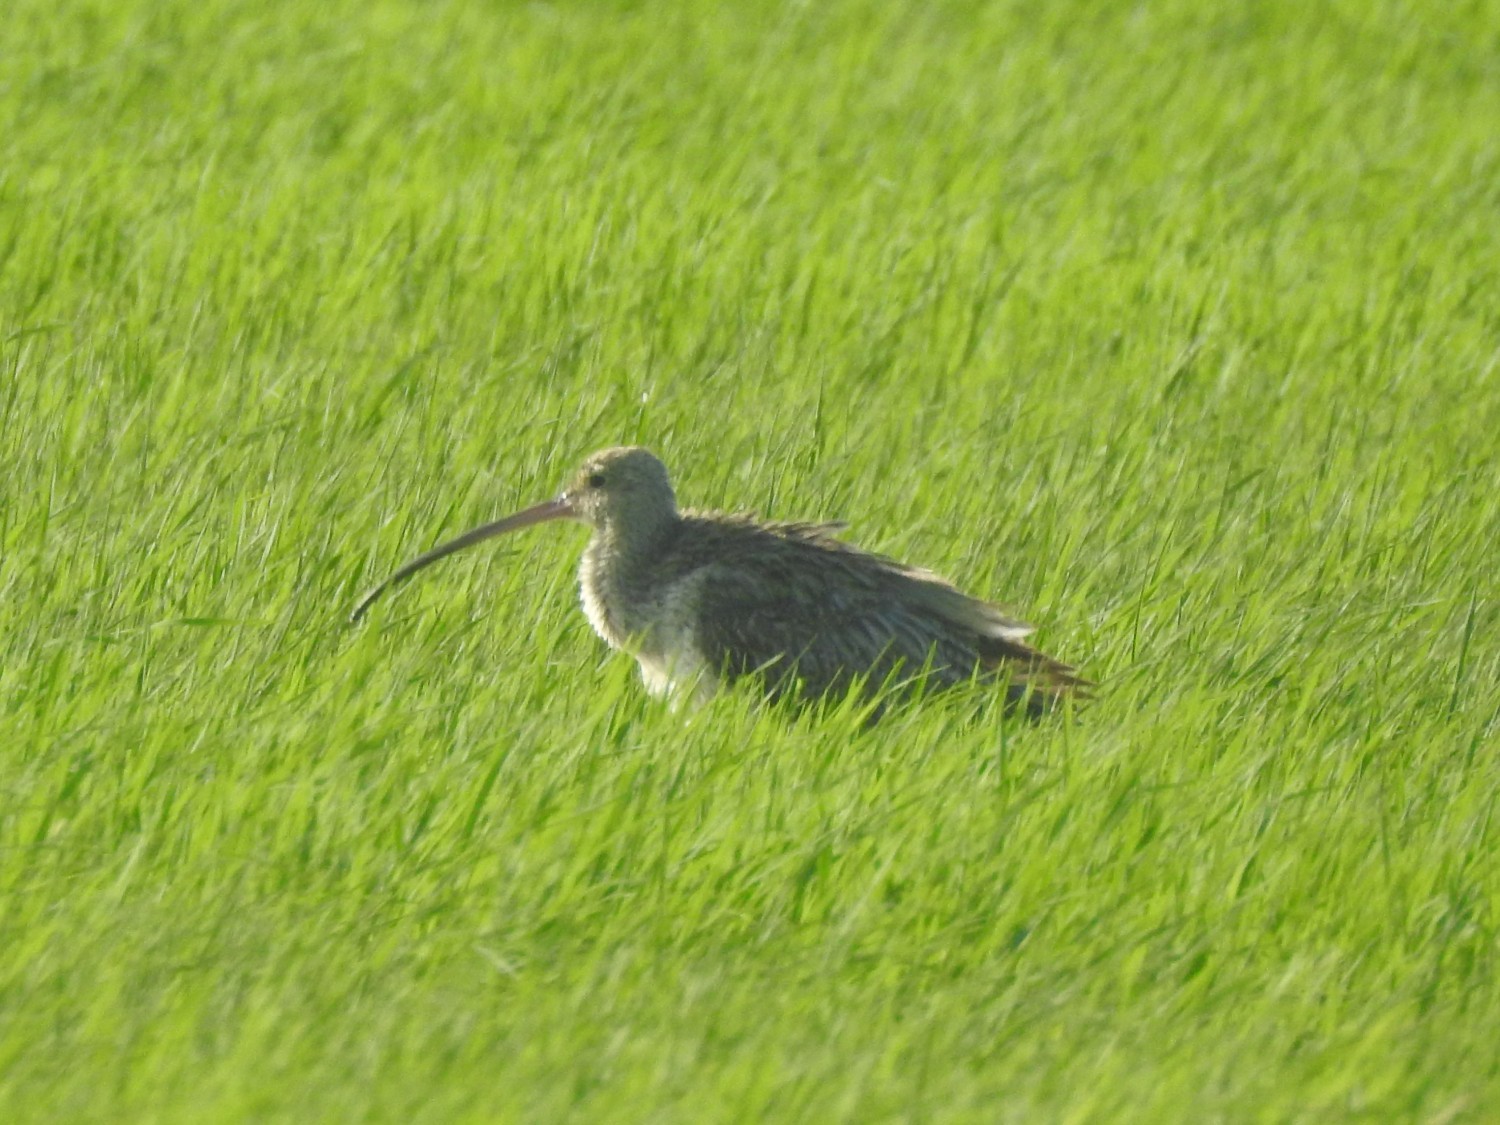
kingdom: Animalia
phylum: Chordata
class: Aves
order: Charadriiformes
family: Scolopacidae
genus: Numenius
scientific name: Numenius arquata
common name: Eurasian curlew
